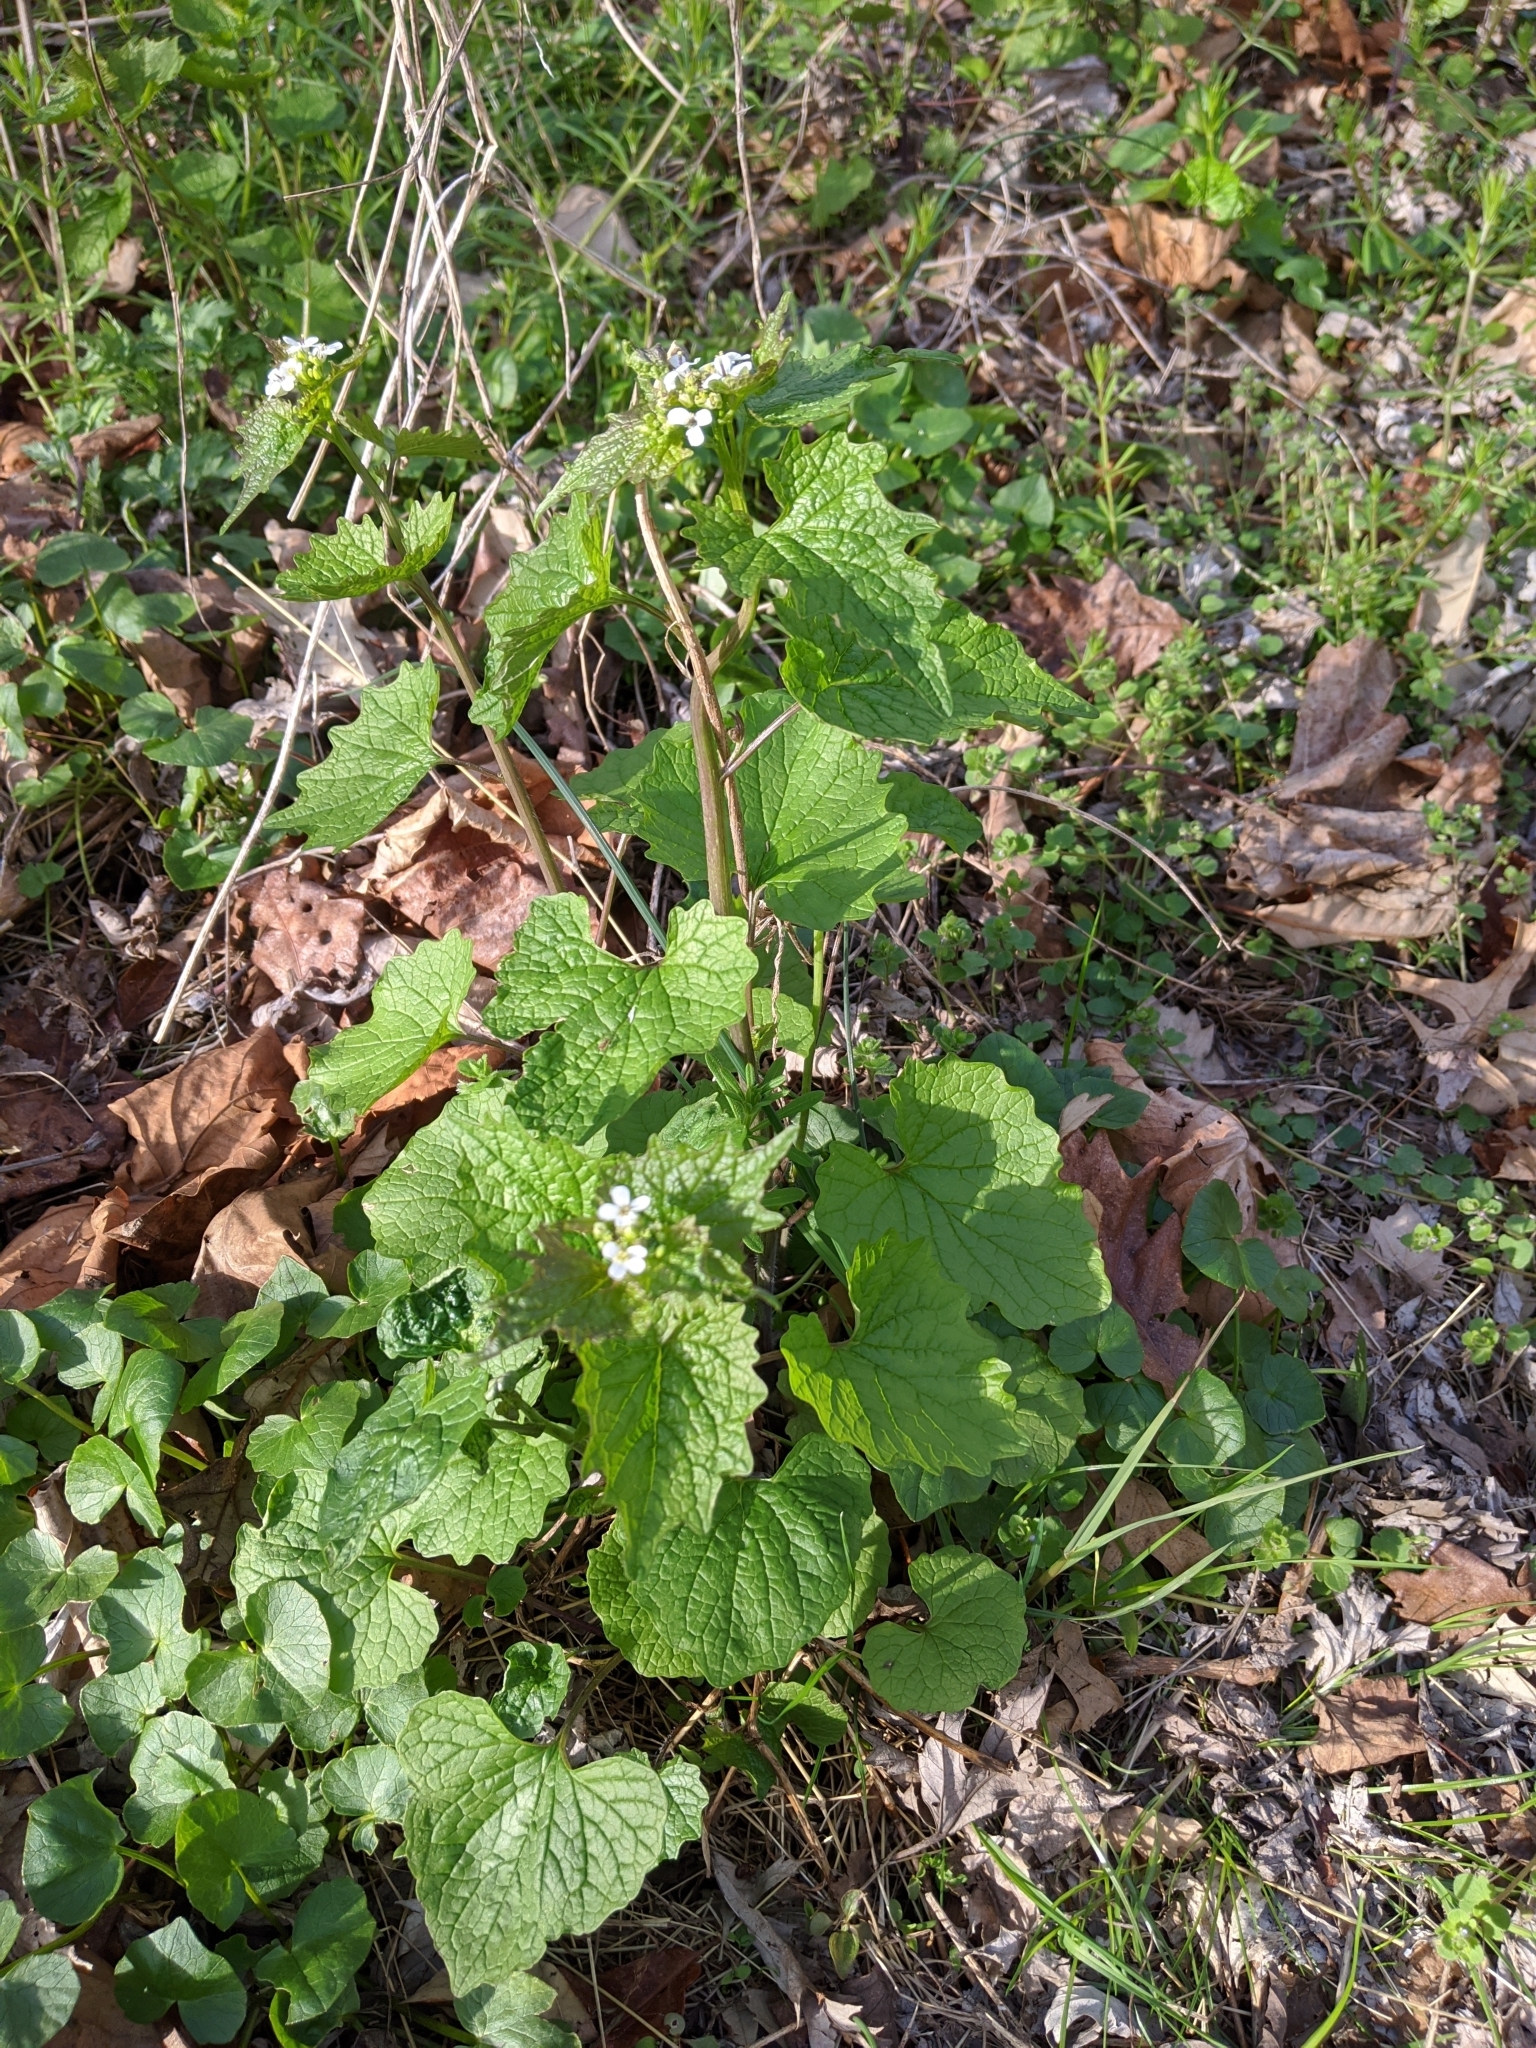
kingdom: Plantae
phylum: Tracheophyta
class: Magnoliopsida
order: Brassicales
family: Brassicaceae
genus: Alliaria
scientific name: Alliaria petiolata
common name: Garlic mustard
